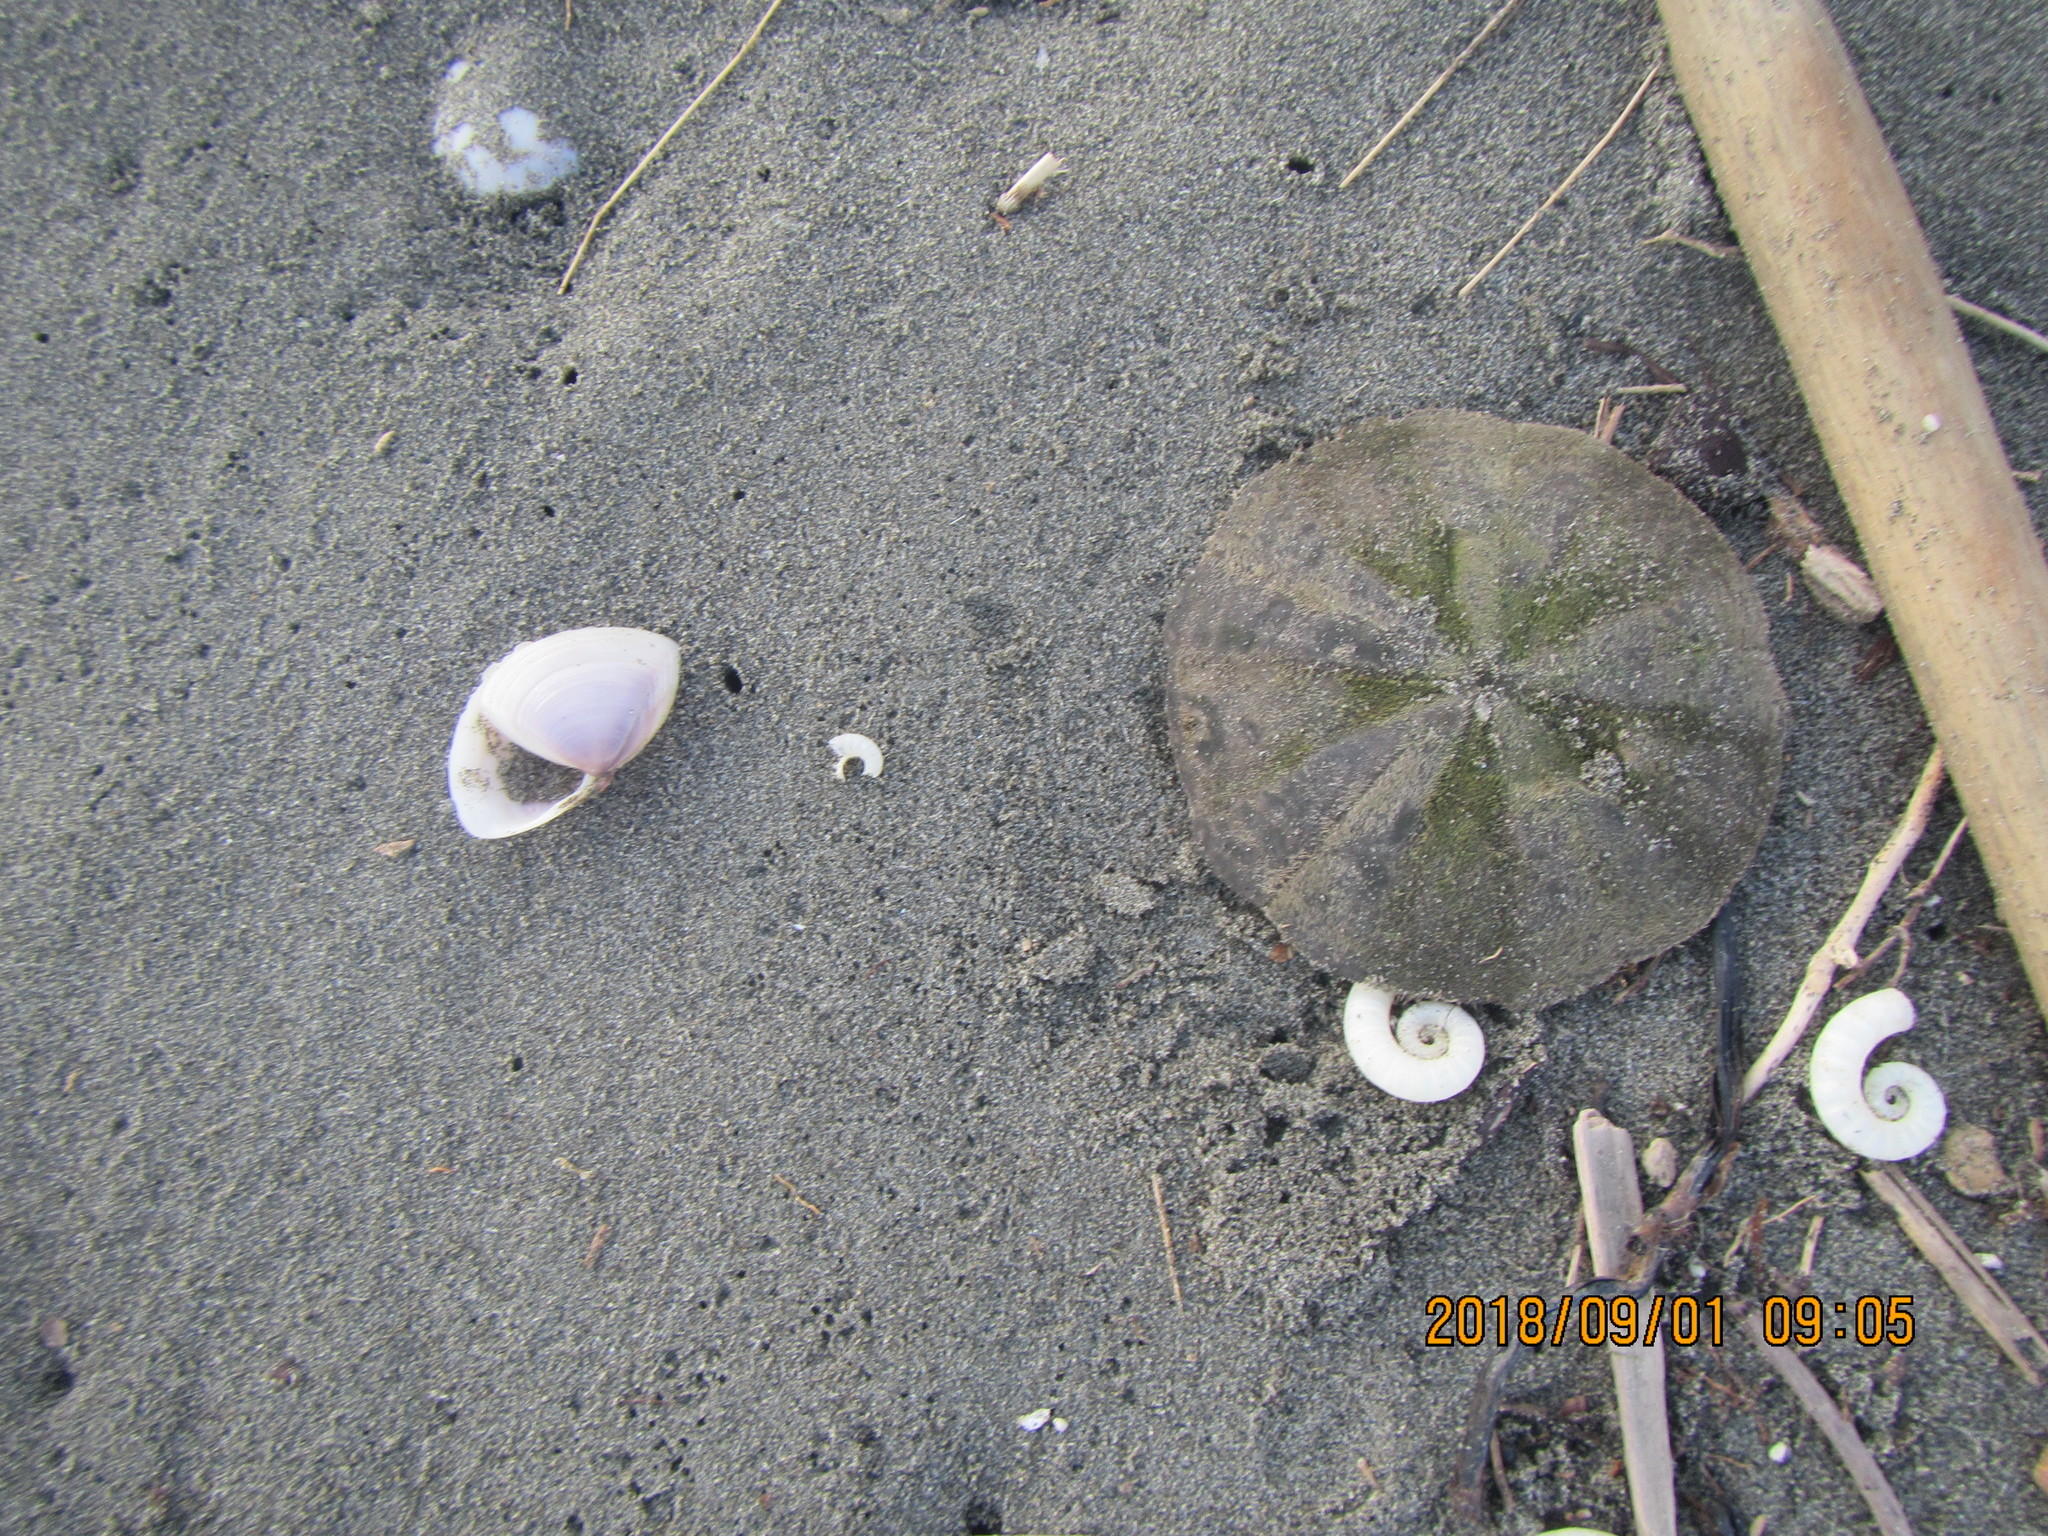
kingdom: Animalia
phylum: Echinodermata
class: Echinoidea
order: Clypeasteroida
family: Clypeasteridae
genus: Fellaster
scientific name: Fellaster zelandiae
